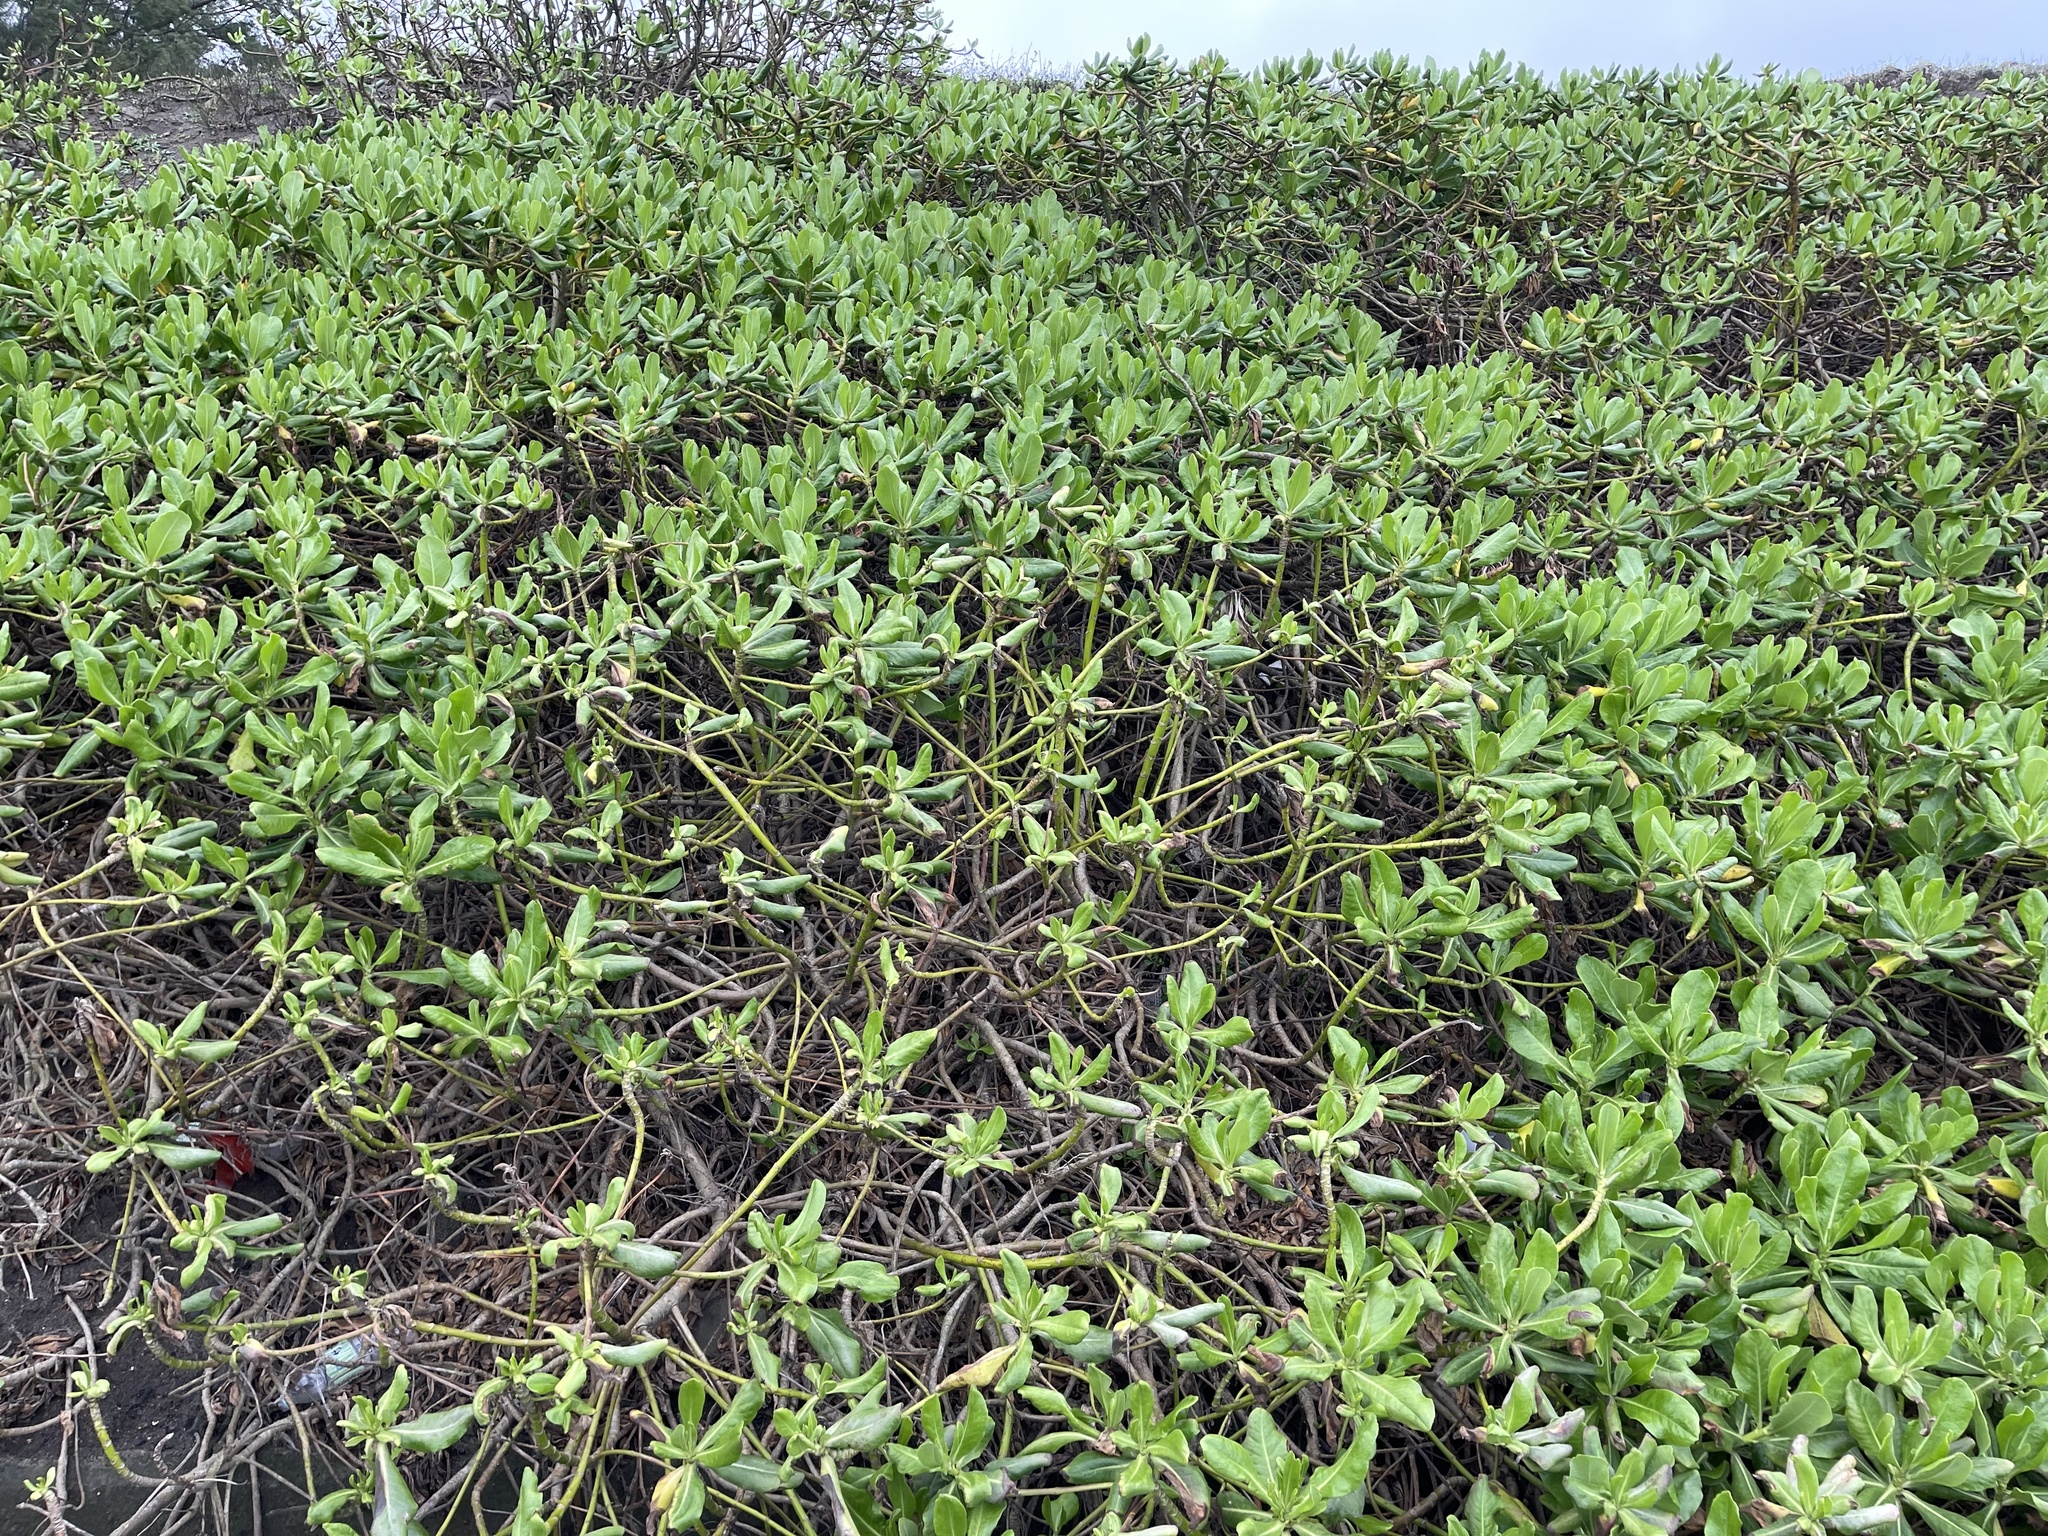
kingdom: Plantae
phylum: Tracheophyta
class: Magnoliopsida
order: Asterales
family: Goodeniaceae
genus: Scaevola
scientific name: Scaevola taccada
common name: Sea lettucetree
